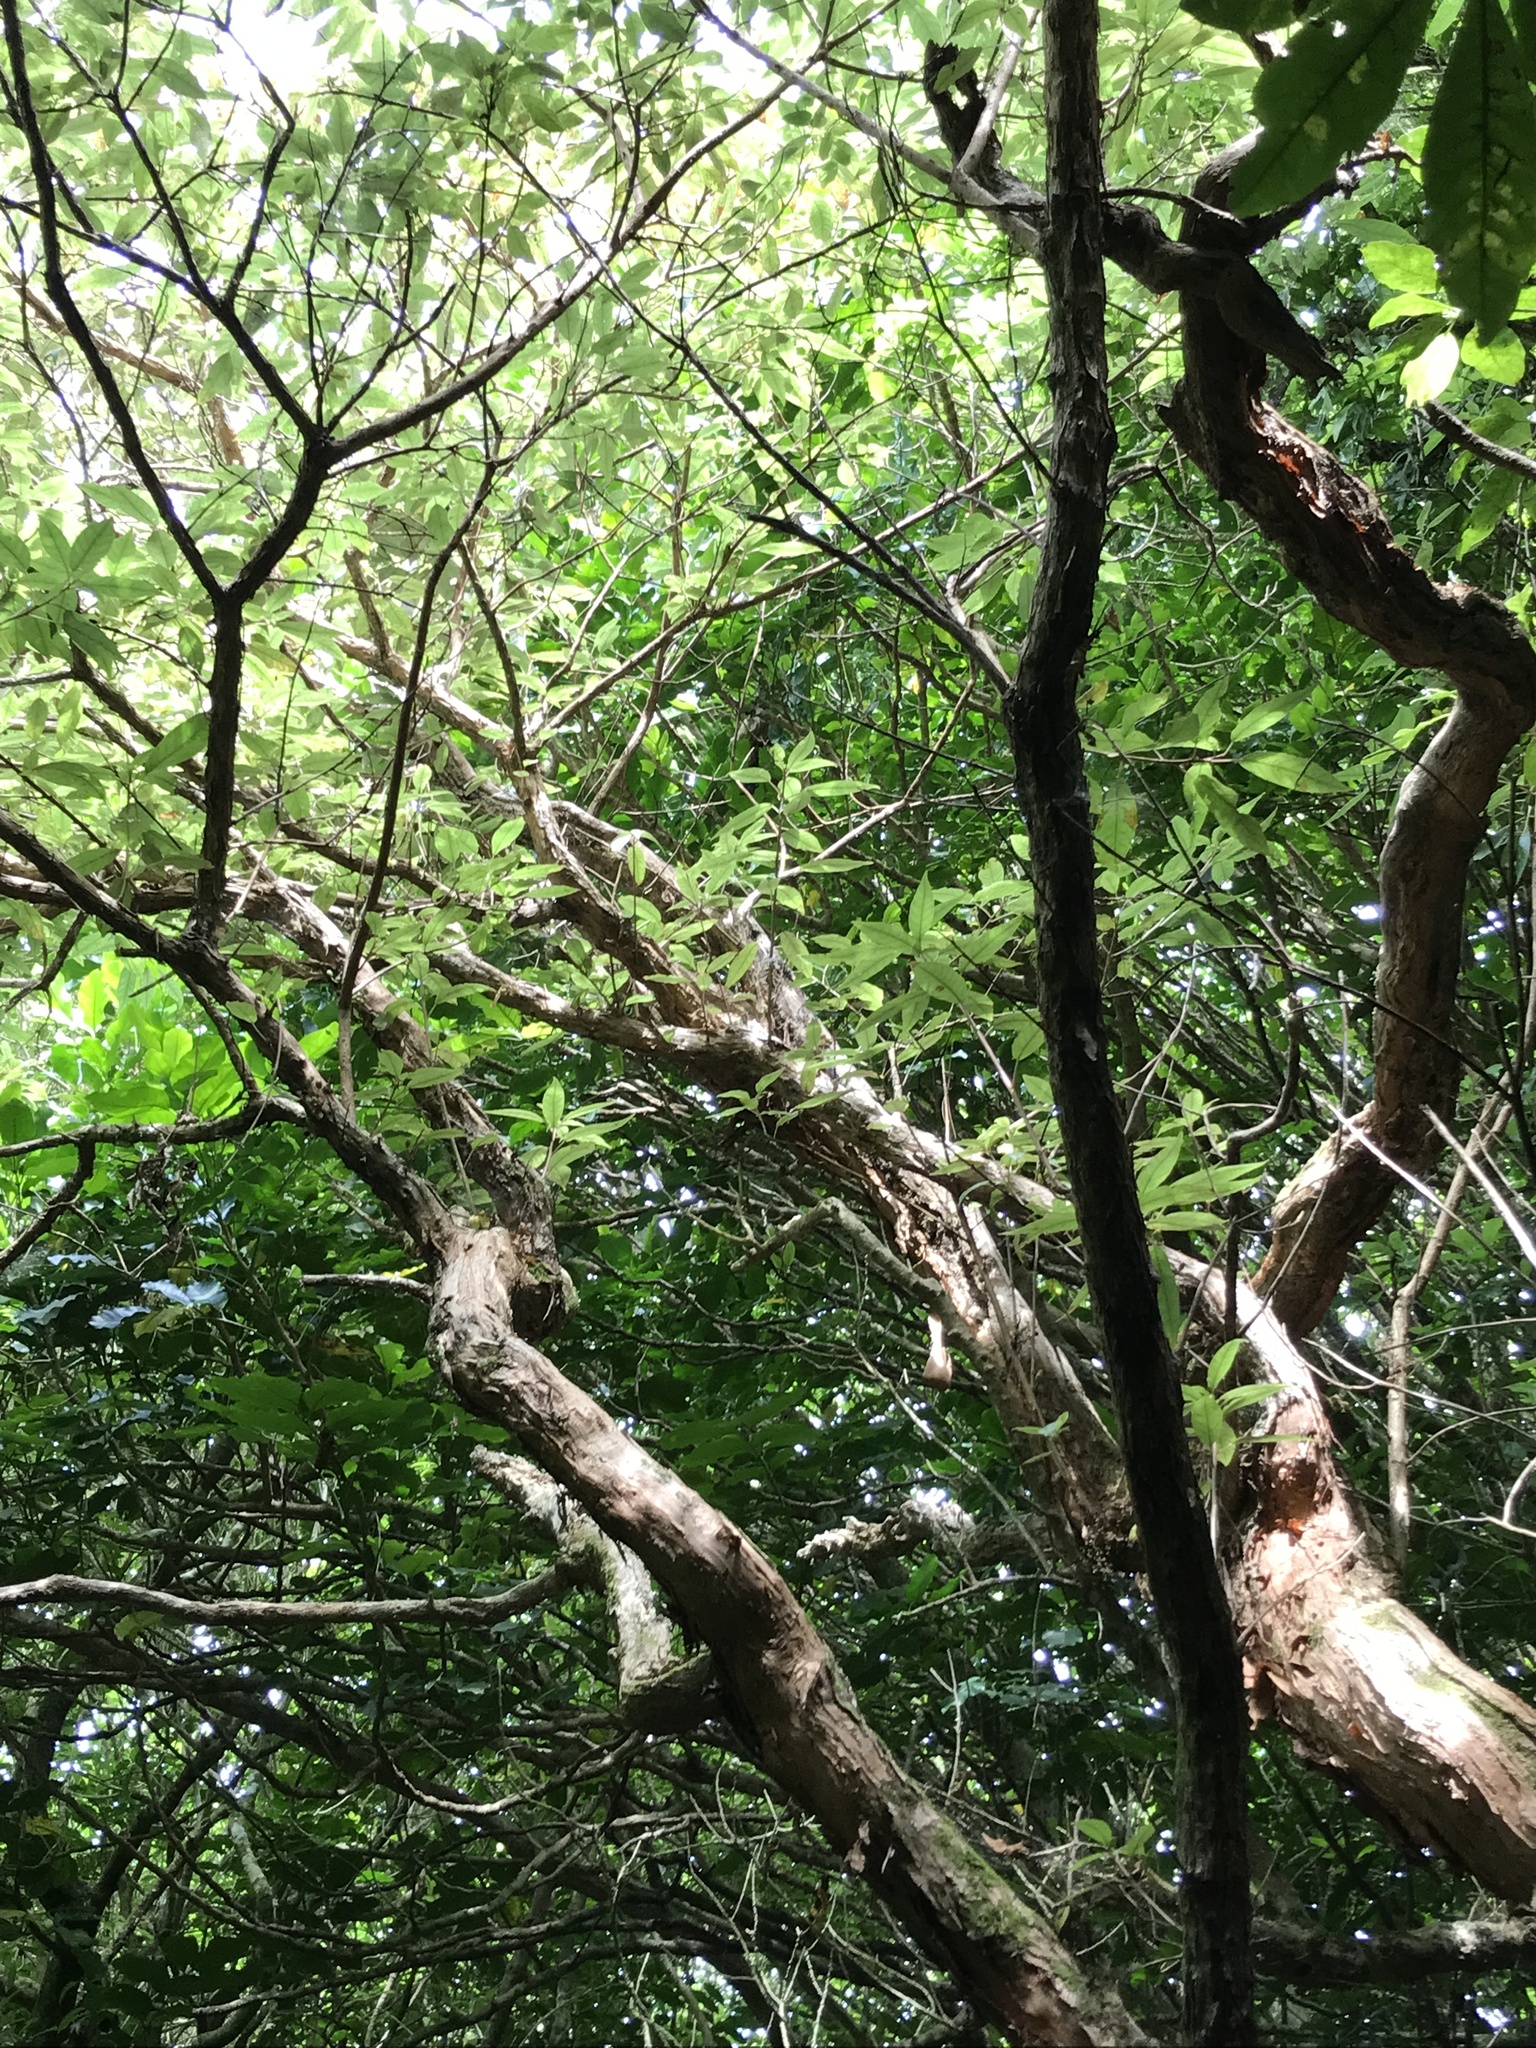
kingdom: Plantae
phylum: Tracheophyta
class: Magnoliopsida
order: Myrtales
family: Onagraceae
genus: Fuchsia
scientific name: Fuchsia excorticata
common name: Tree fuchsia
